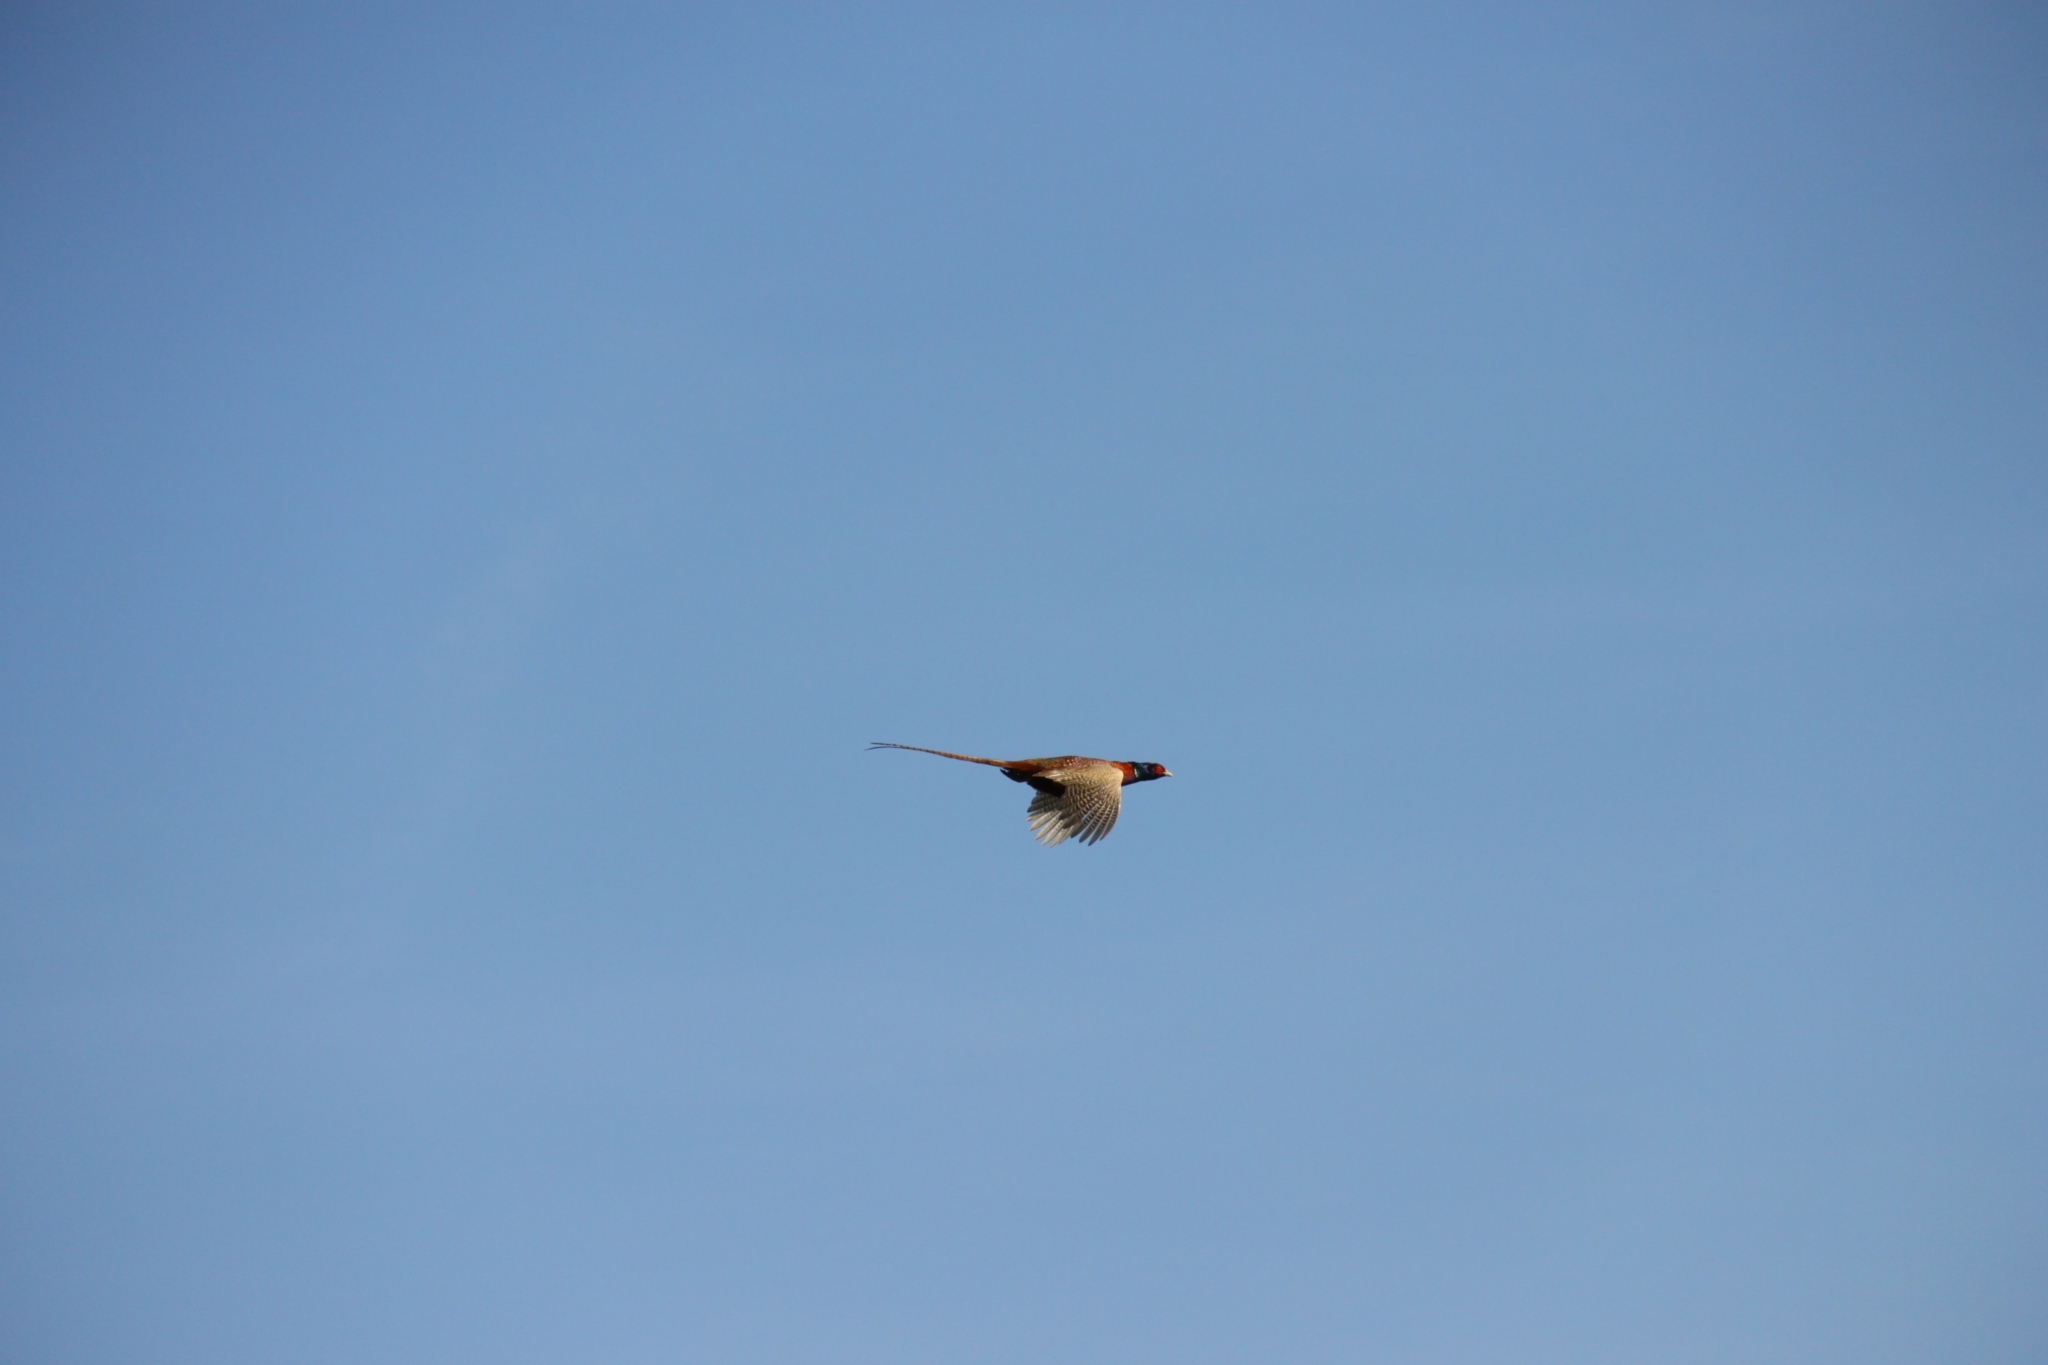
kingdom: Animalia
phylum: Chordata
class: Aves
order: Galliformes
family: Phasianidae
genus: Phasianus
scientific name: Phasianus colchicus
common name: Common pheasant
